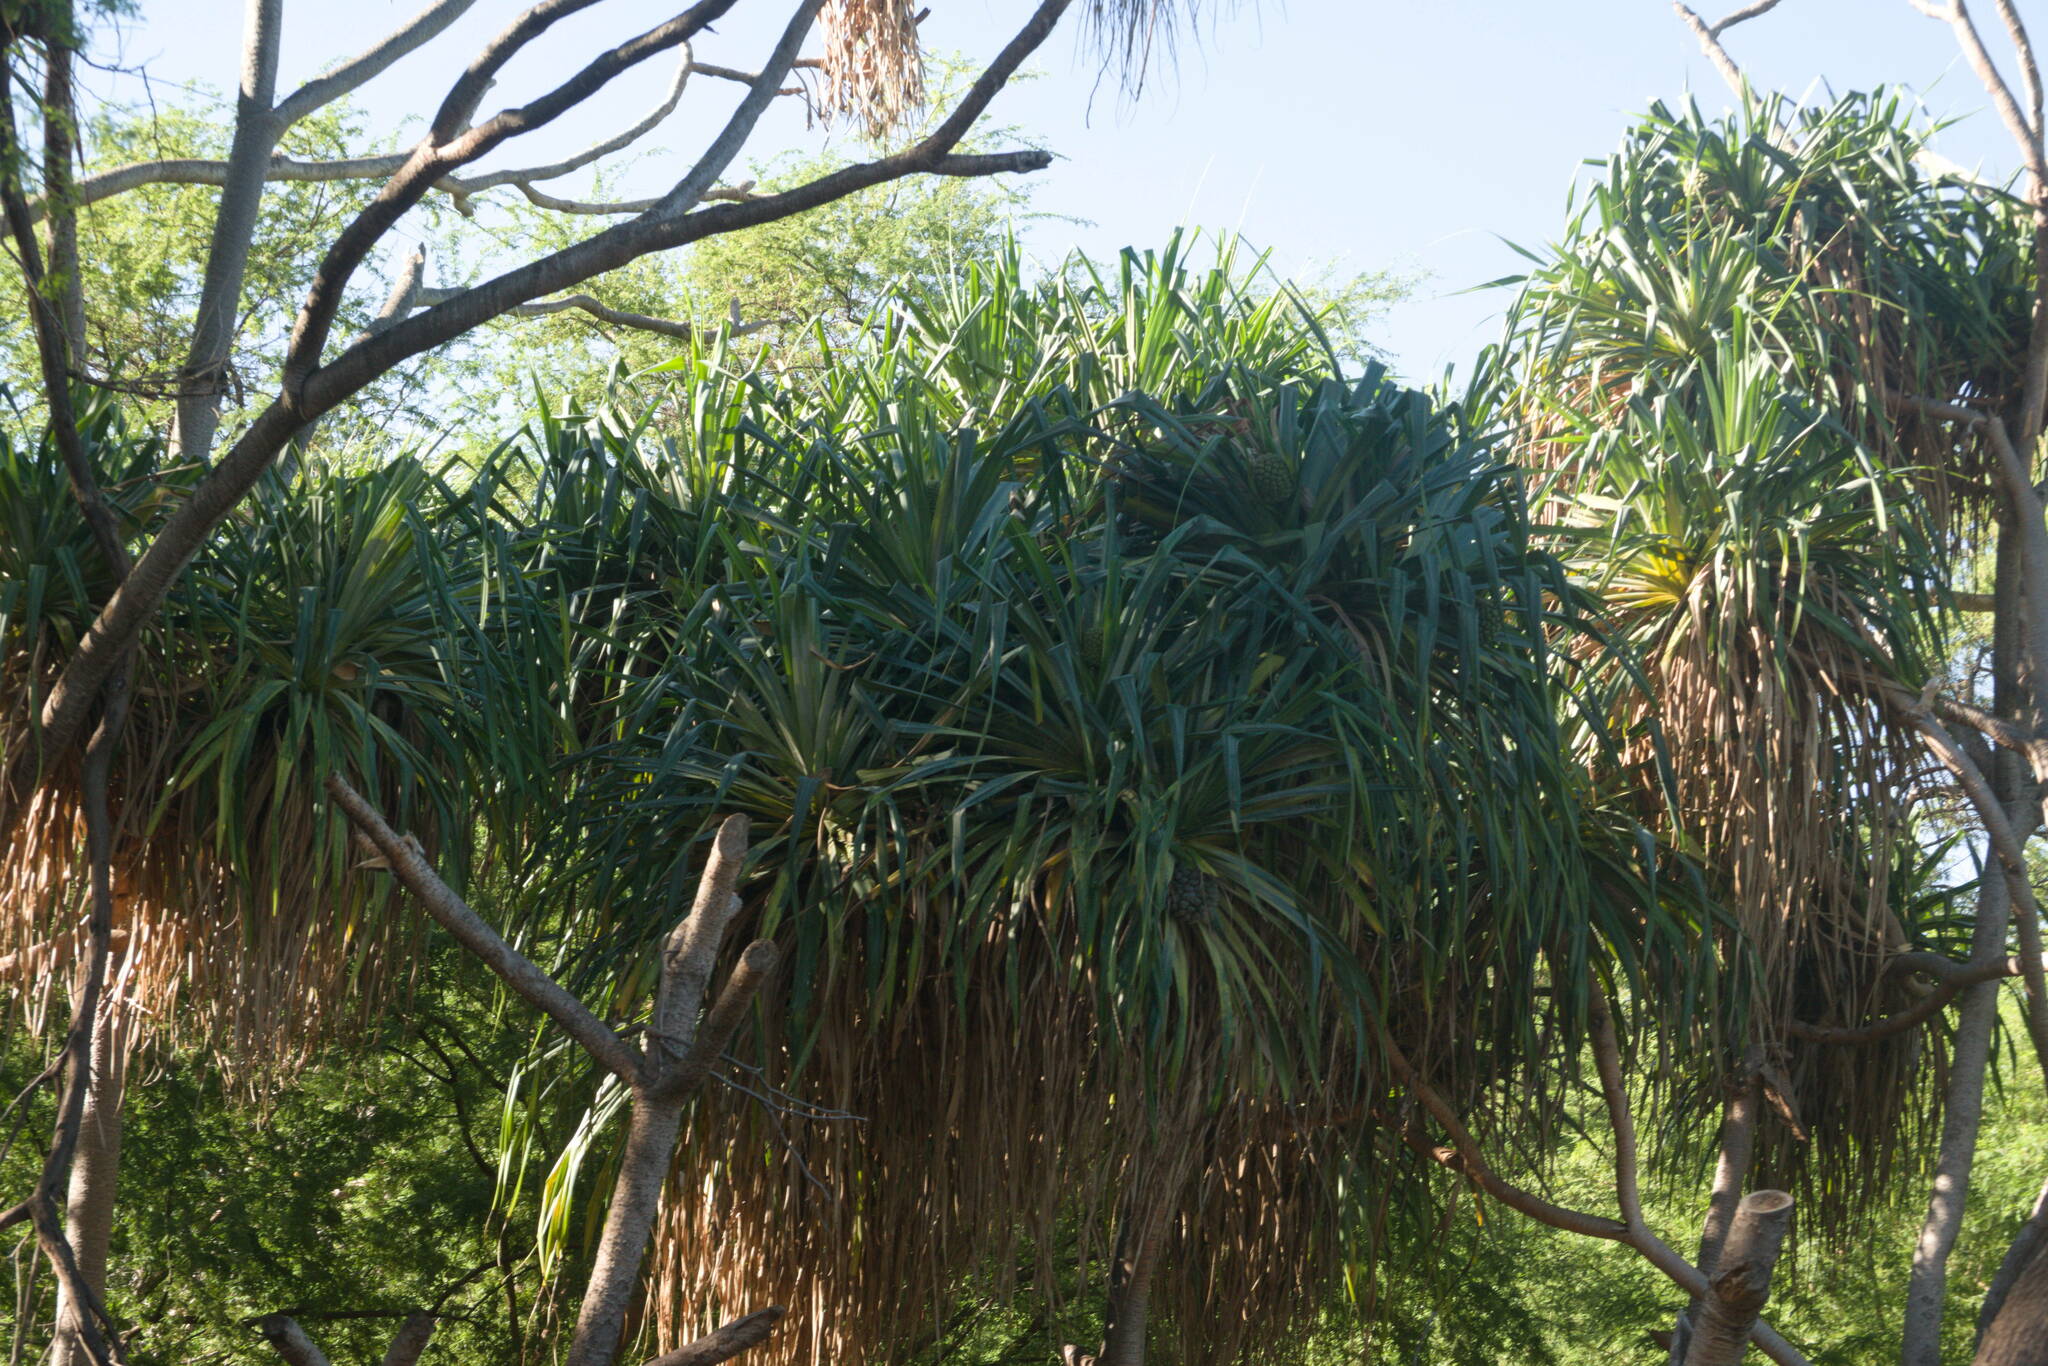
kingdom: Plantae
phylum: Tracheophyta
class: Liliopsida
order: Pandanales
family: Pandanaceae
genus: Pandanus
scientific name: Pandanus tectorius
